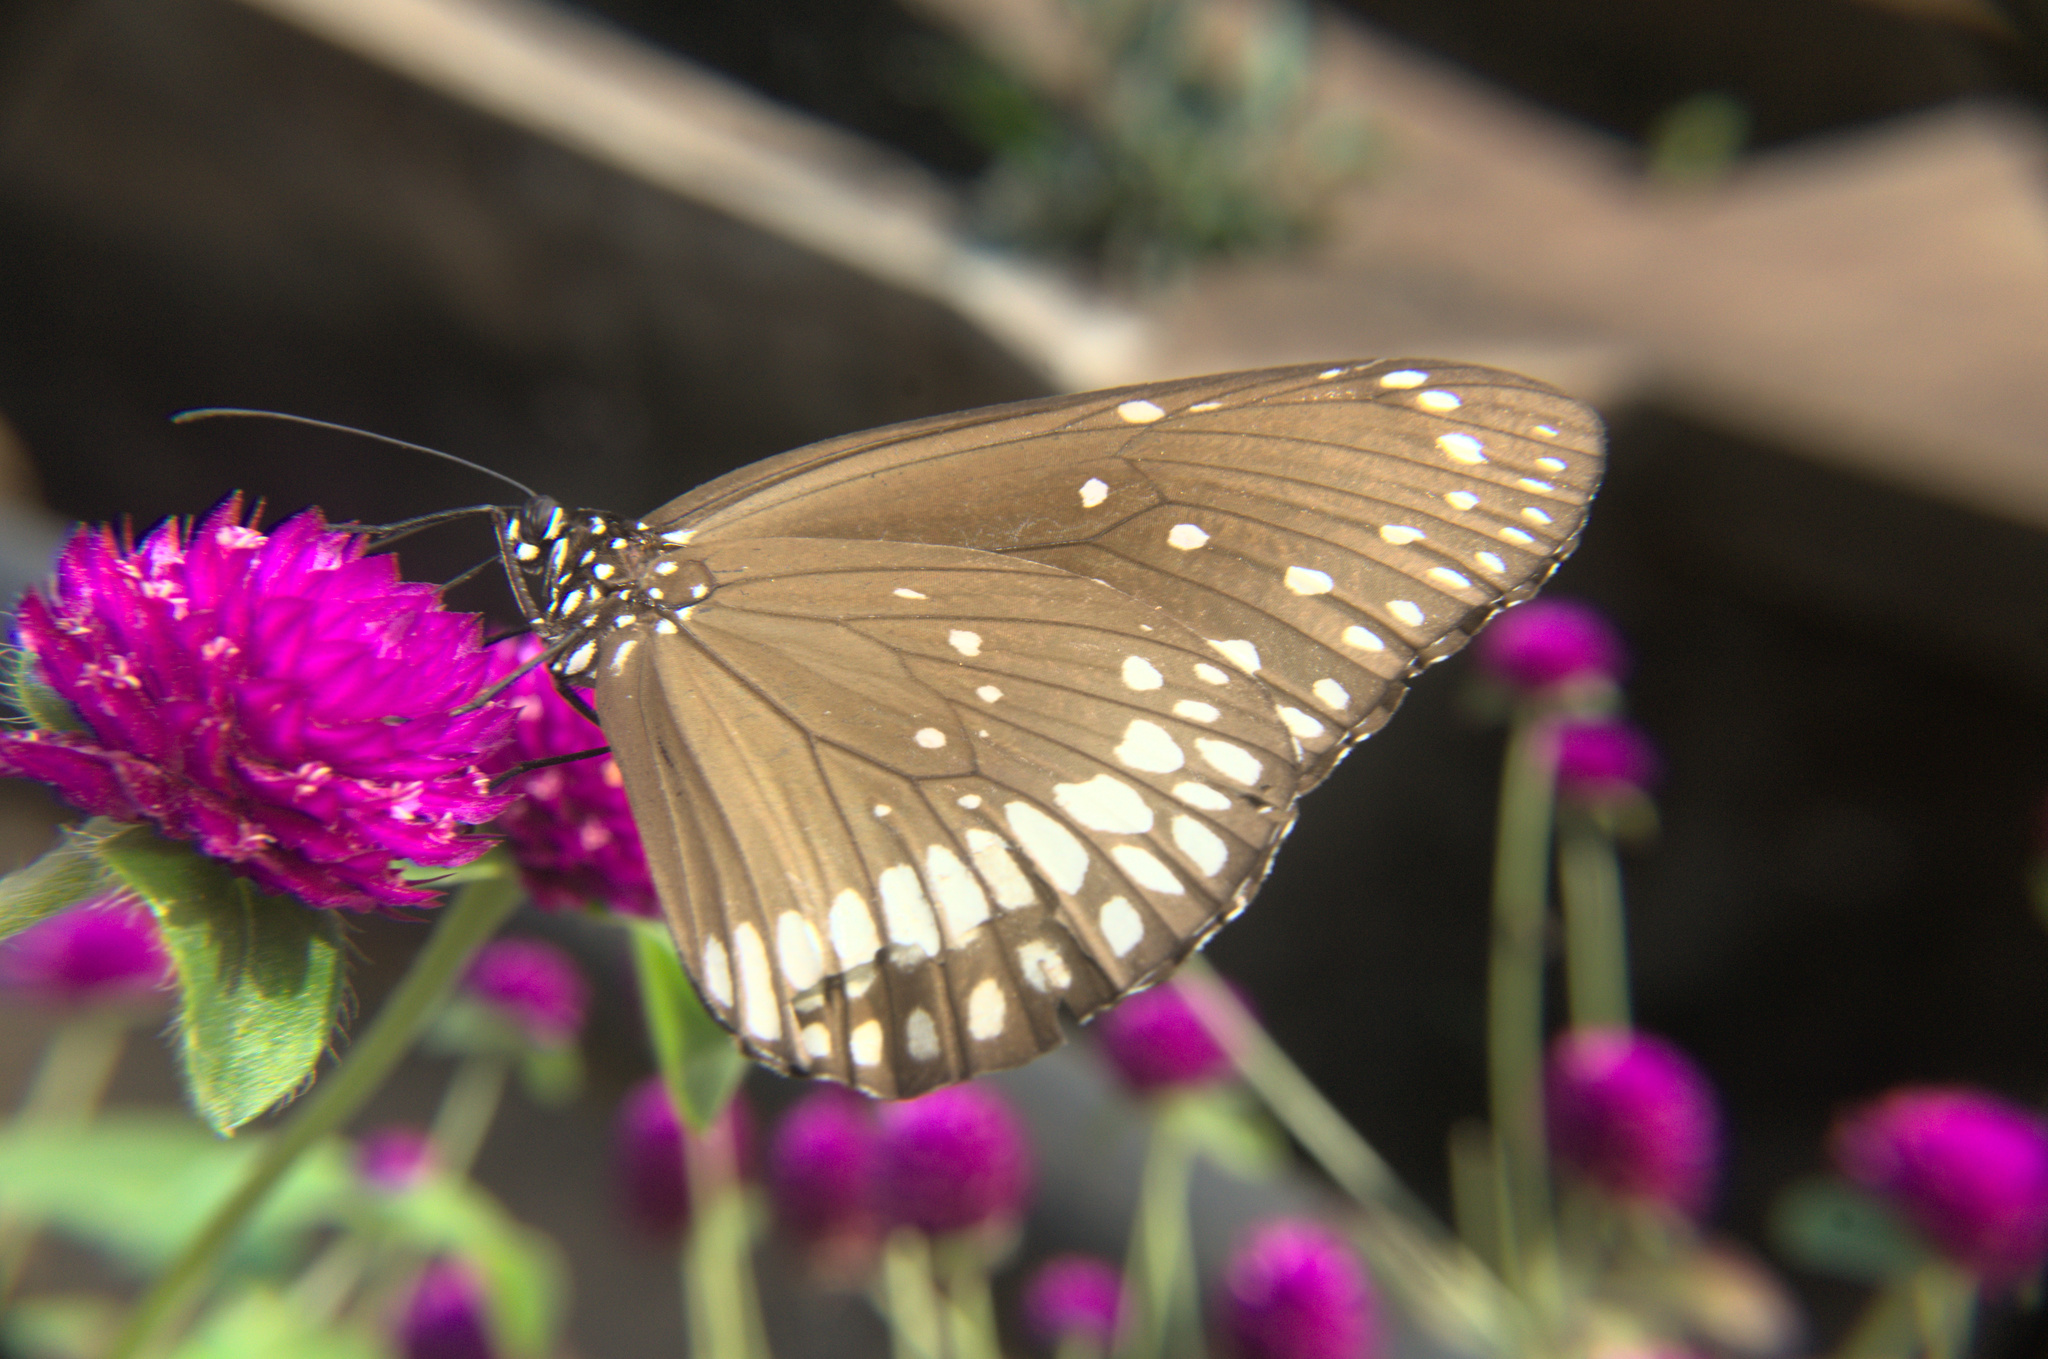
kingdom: Animalia
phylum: Arthropoda
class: Insecta
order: Lepidoptera
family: Nymphalidae
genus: Euploea
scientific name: Euploea core
